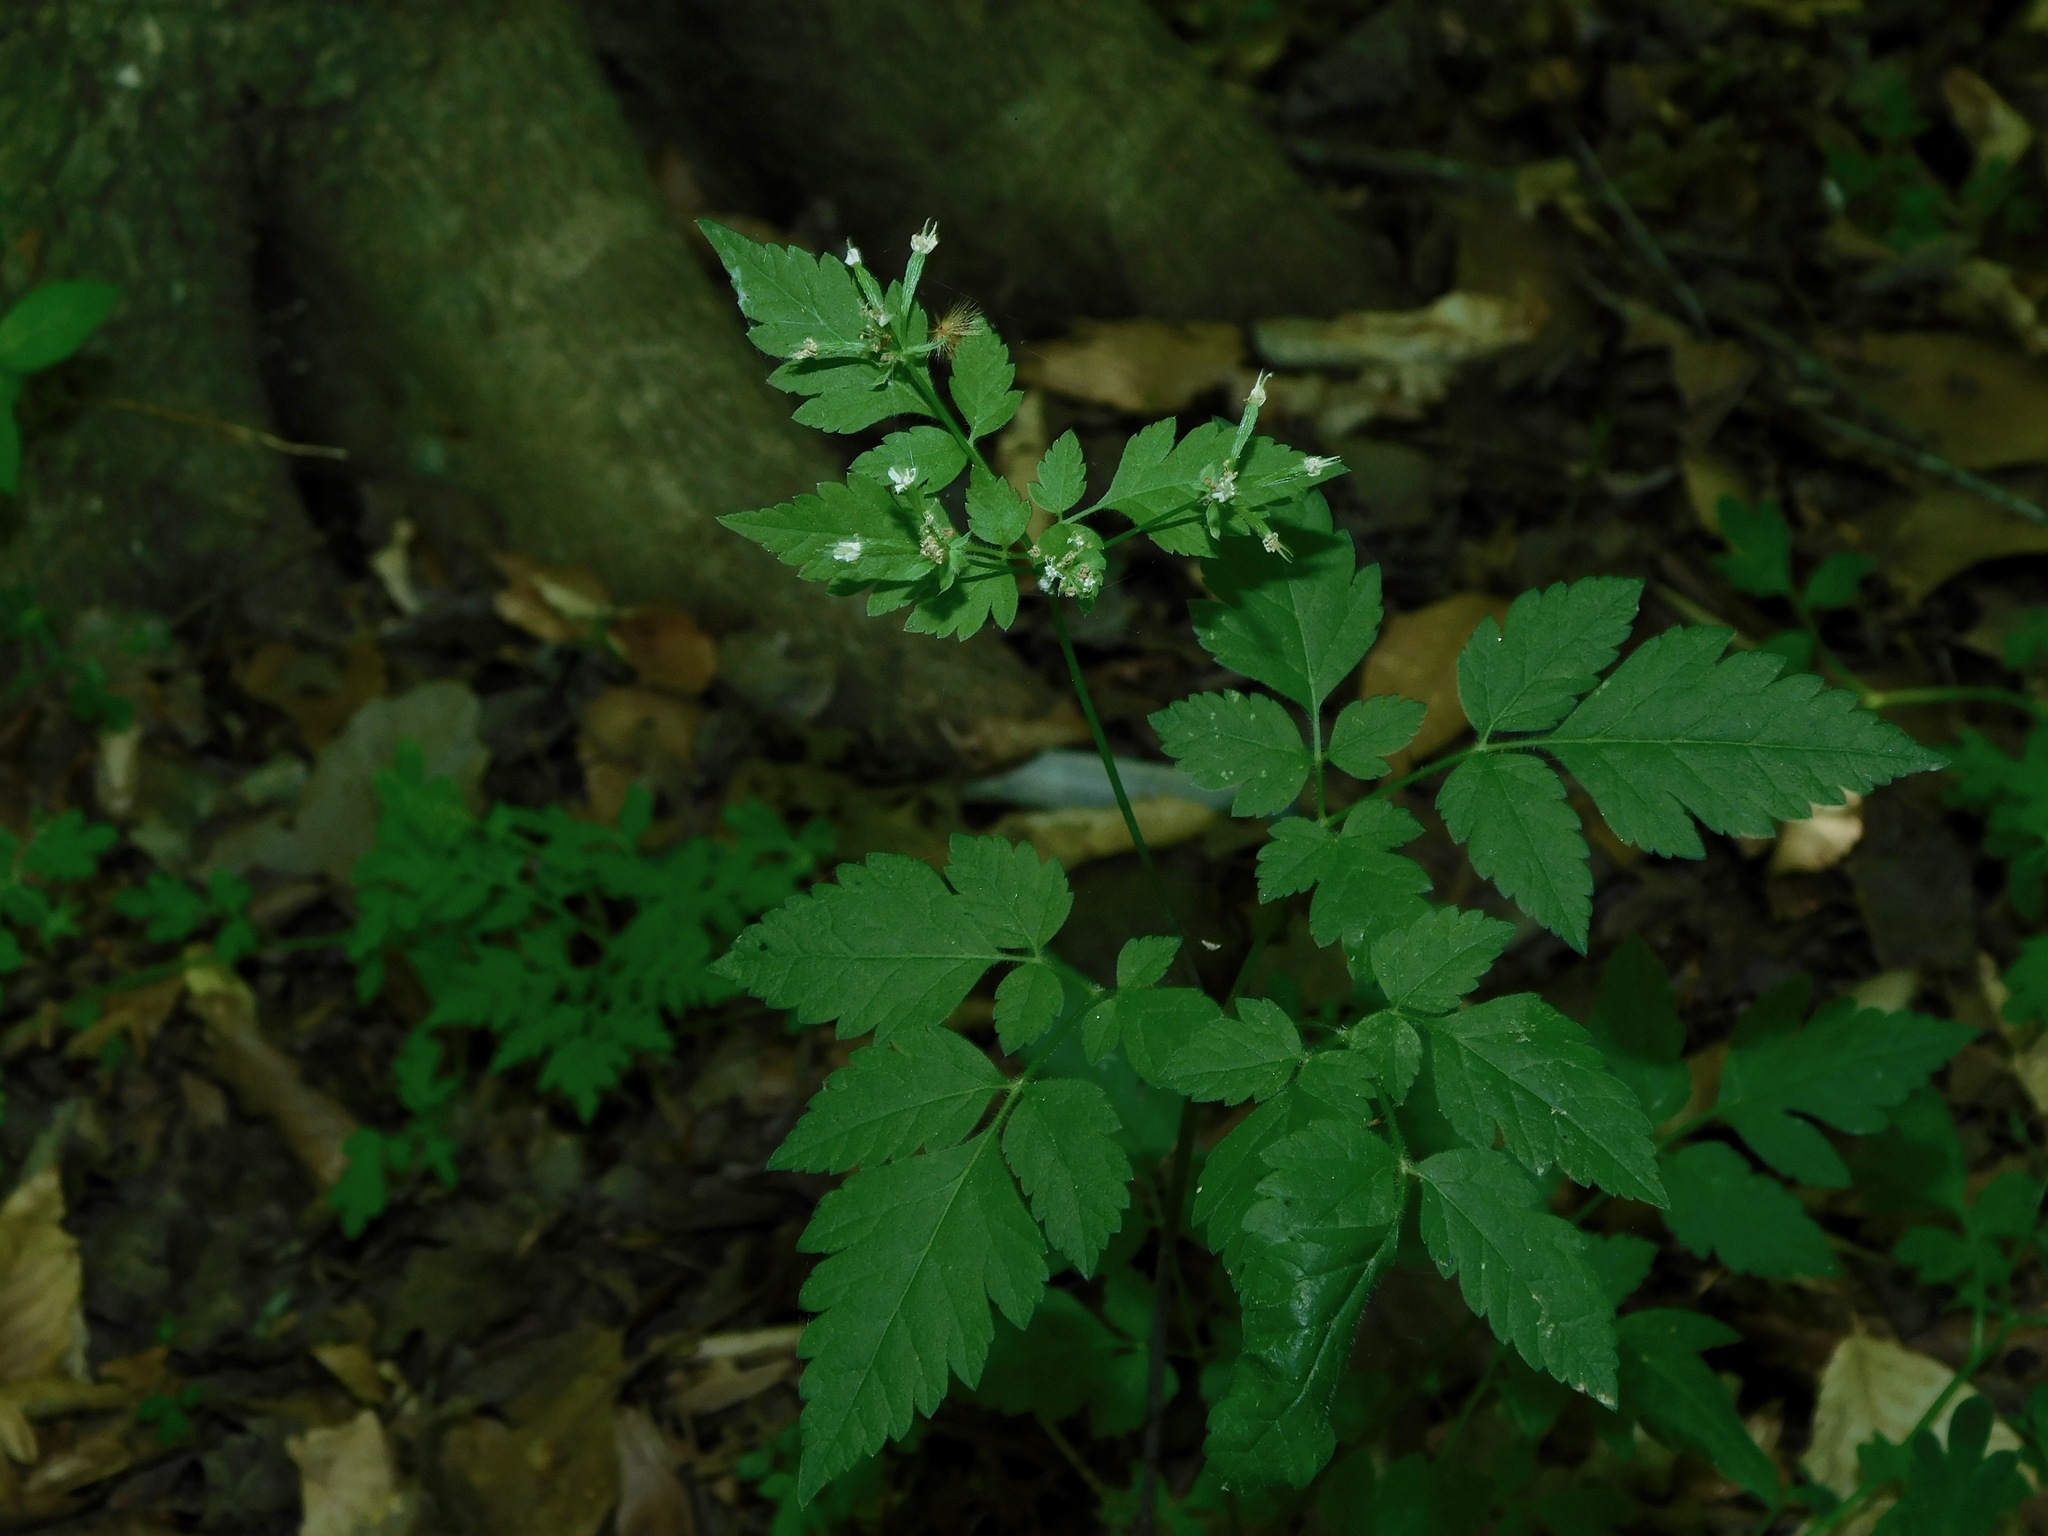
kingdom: Plantae
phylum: Tracheophyta
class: Magnoliopsida
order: Apiales
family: Apiaceae
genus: Osmorhiza
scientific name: Osmorhiza longistylis
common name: Smooth sweet cicely
